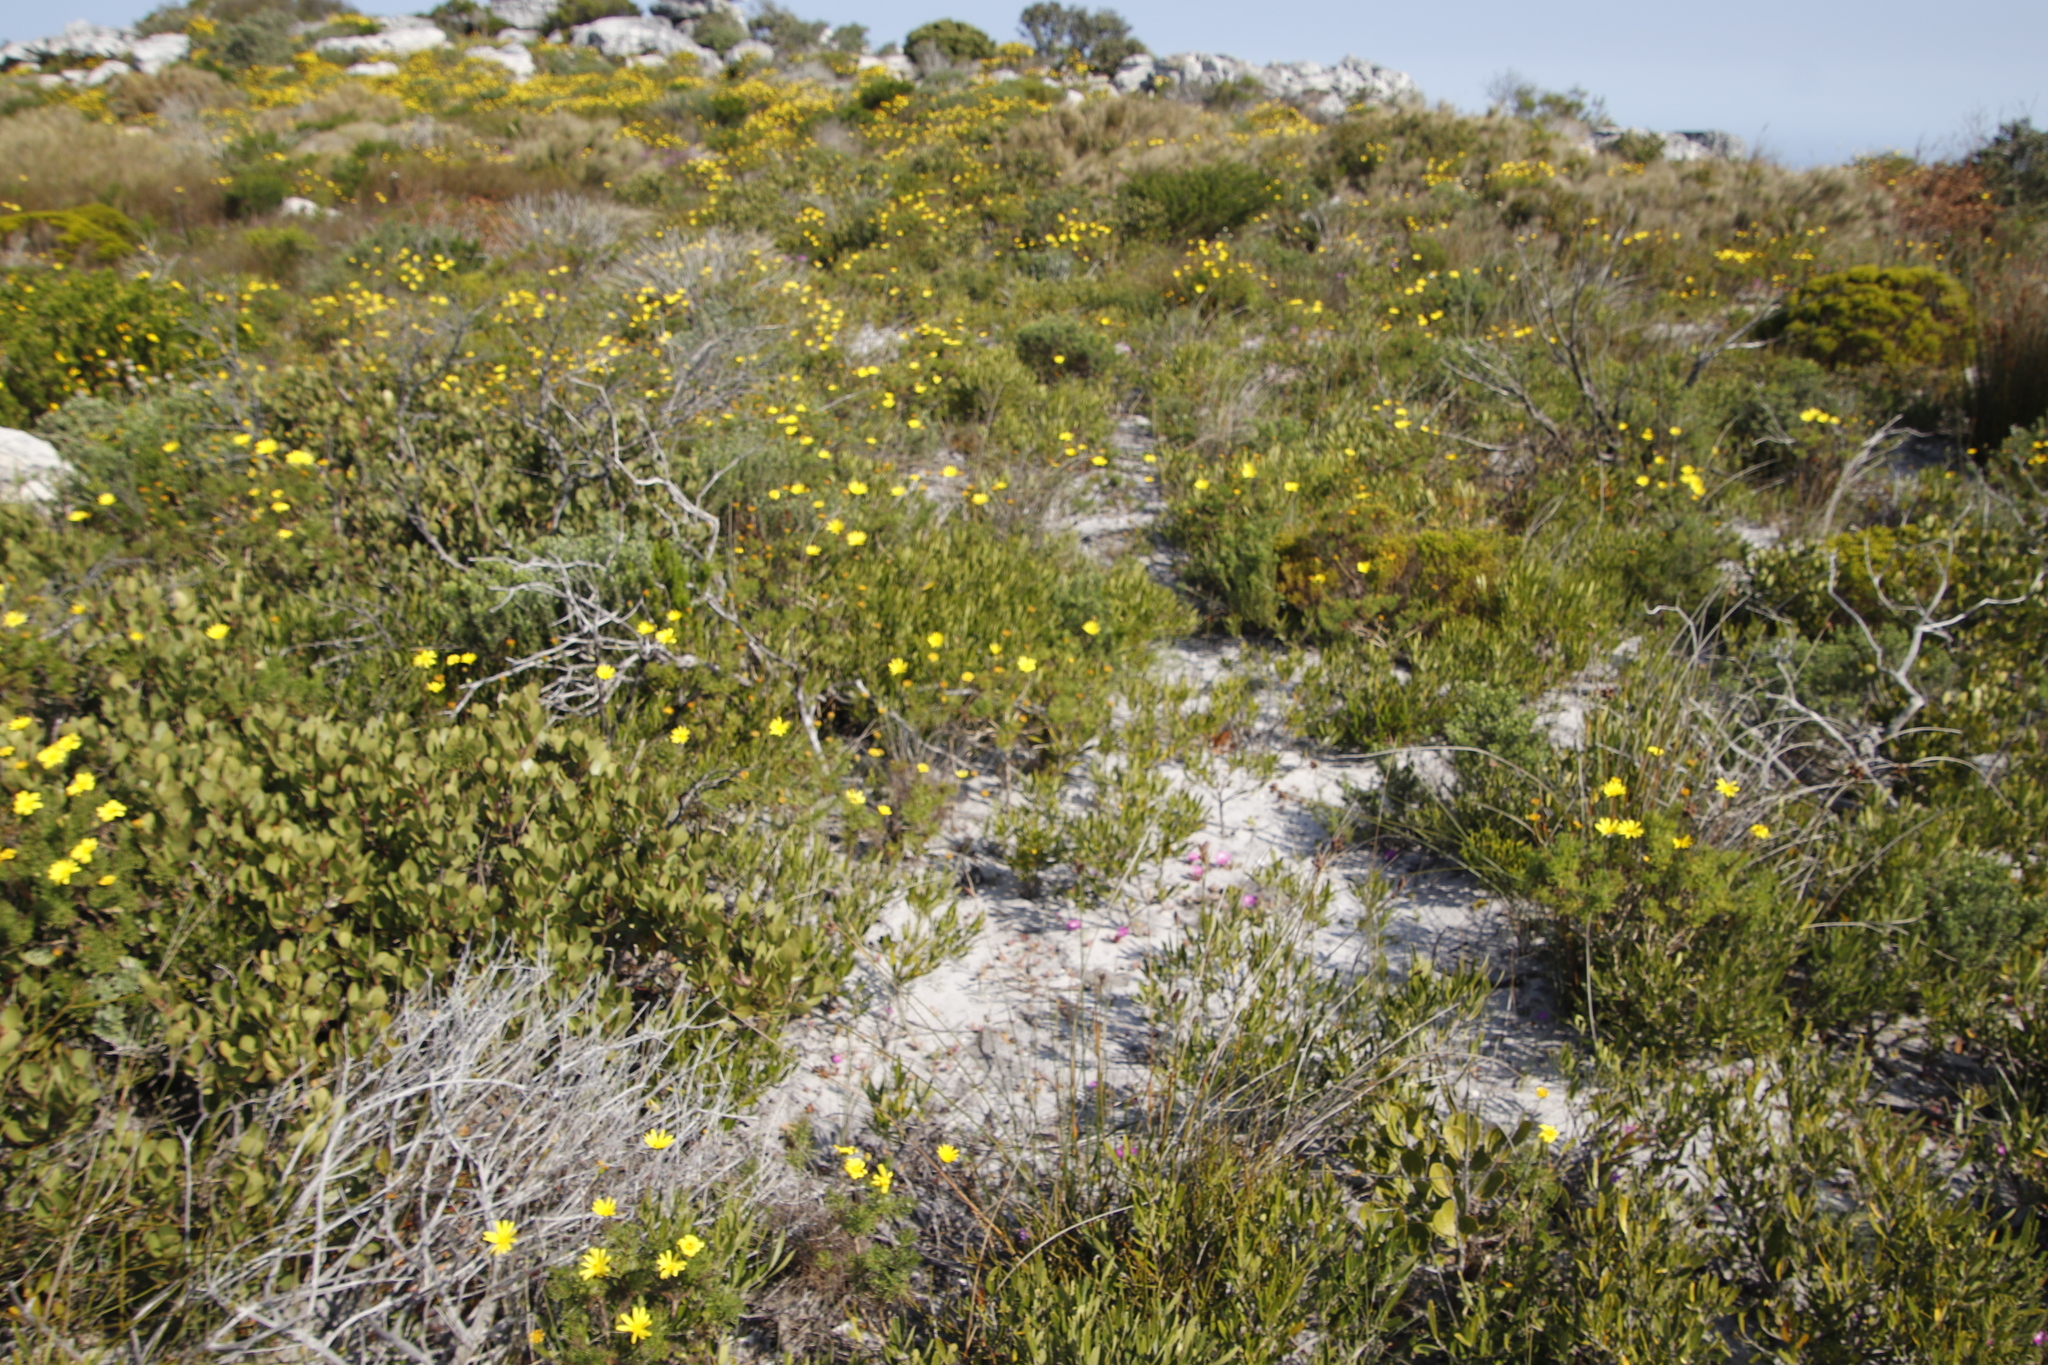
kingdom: Plantae
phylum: Tracheophyta
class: Magnoliopsida
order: Caryophyllales
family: Aizoaceae
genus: Cleretum
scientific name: Cleretum bellidiforme
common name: Livingstone daisy
